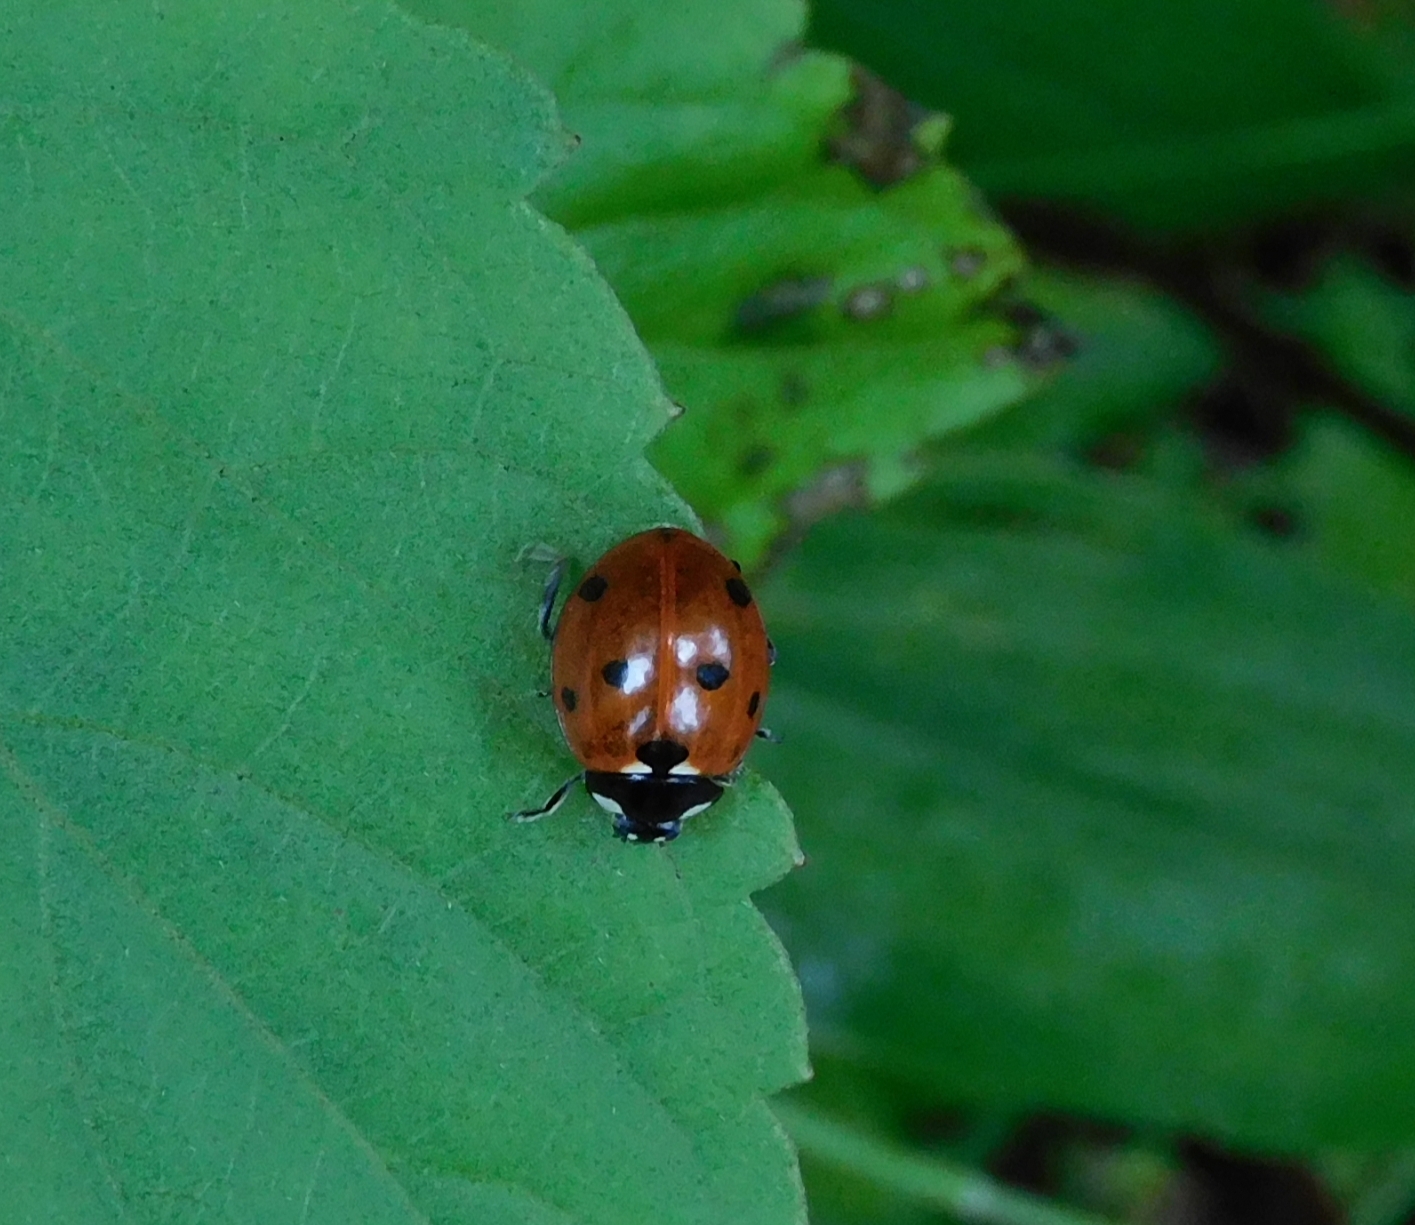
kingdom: Animalia
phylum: Arthropoda
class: Insecta
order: Coleoptera
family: Coccinellidae
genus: Coccinella
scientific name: Coccinella septempunctata
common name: Sevenspotted lady beetle
